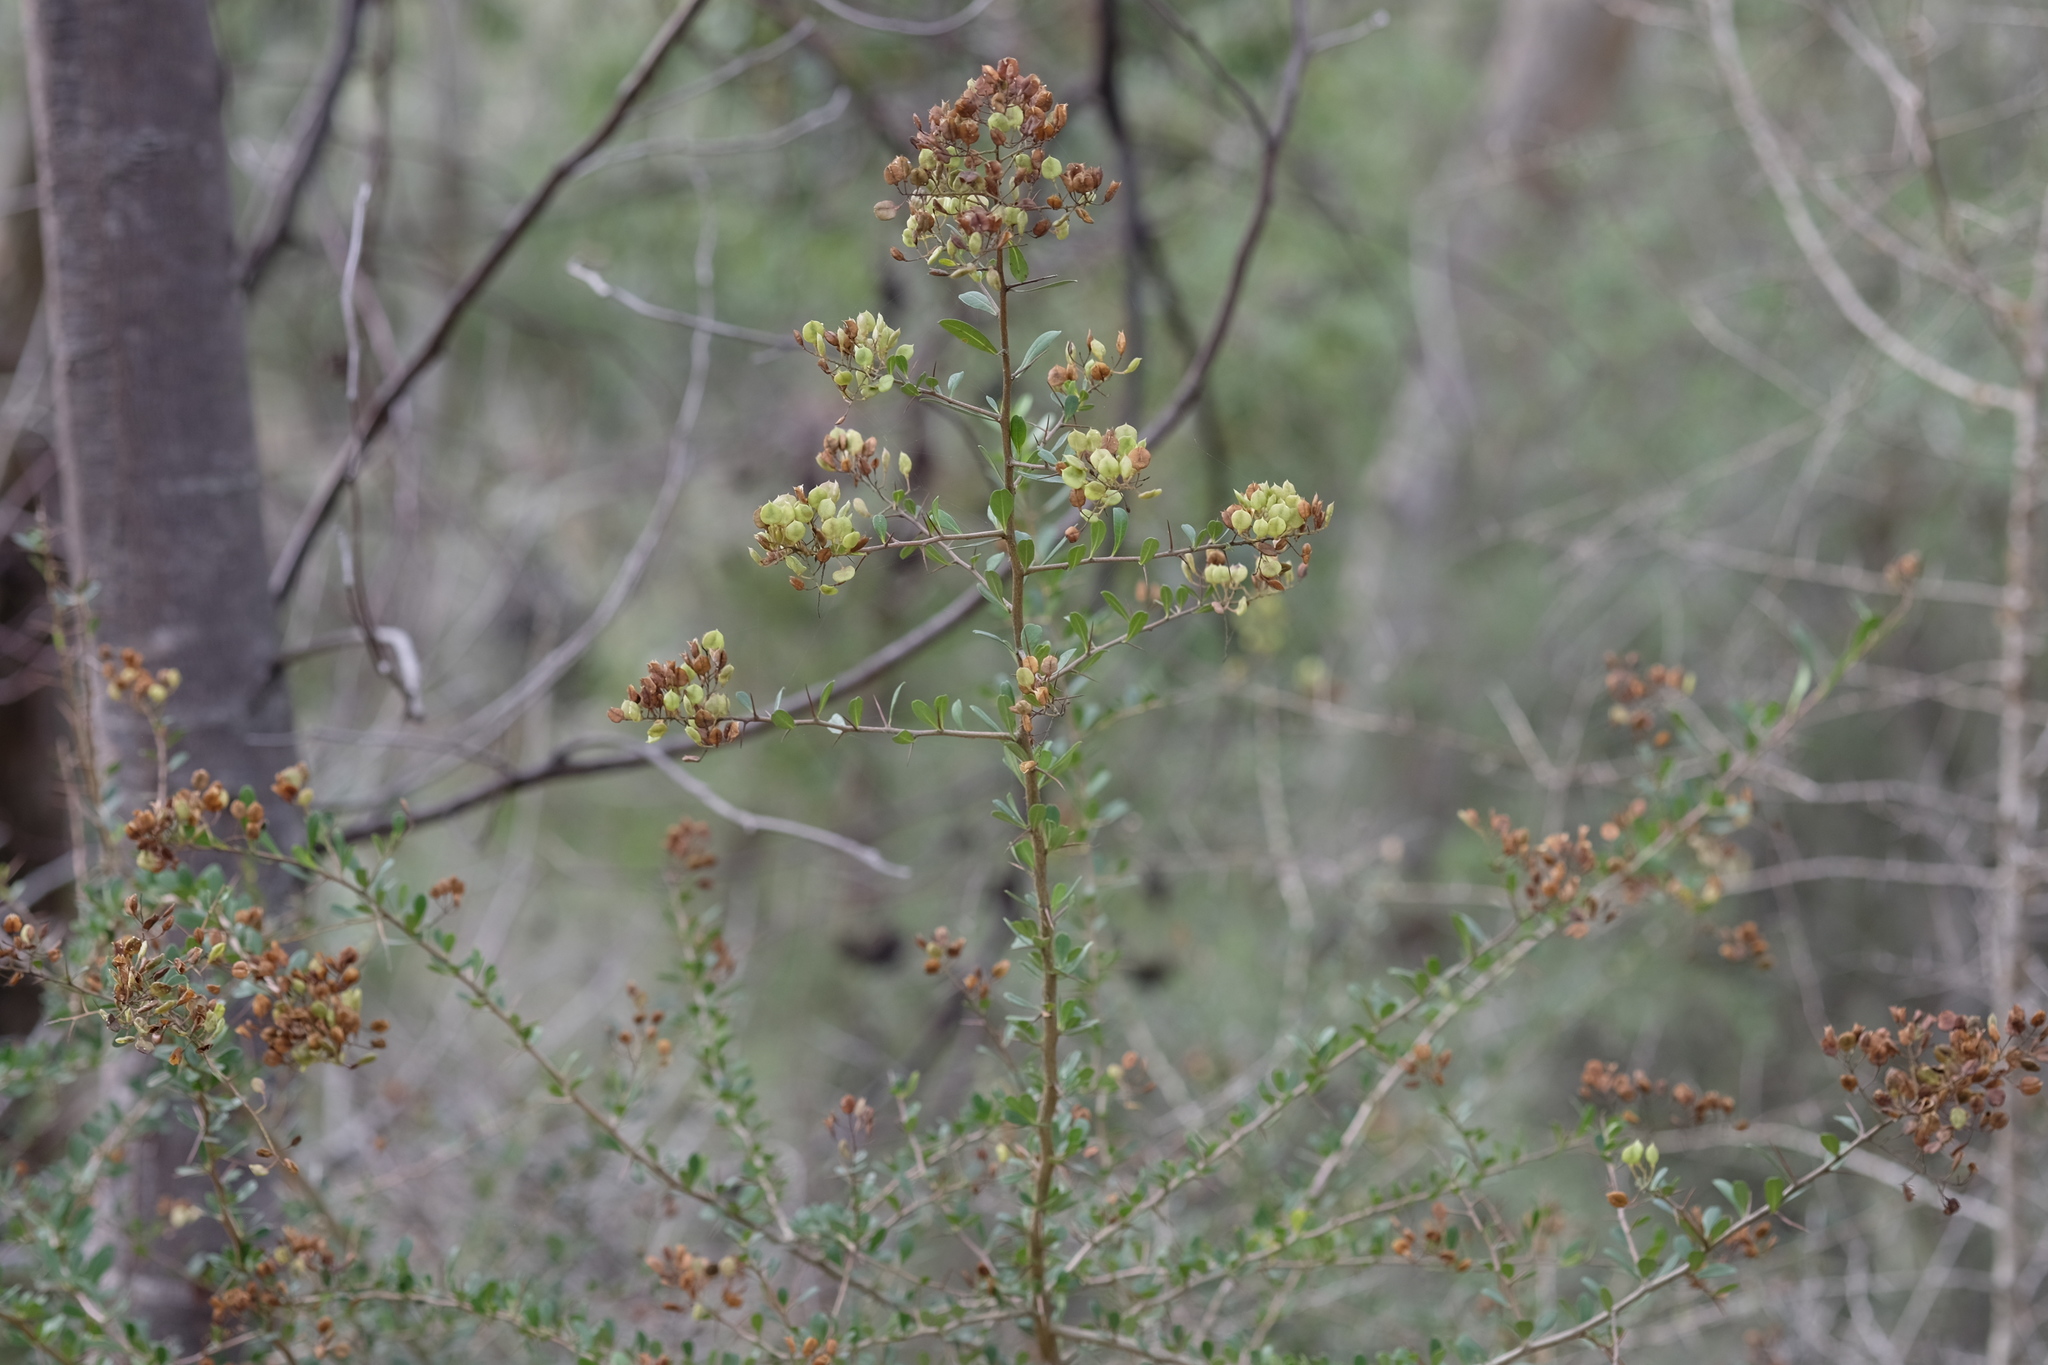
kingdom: Plantae
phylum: Tracheophyta
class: Magnoliopsida
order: Apiales
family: Pittosporaceae
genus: Bursaria
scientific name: Bursaria spinosa
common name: Australian blackthorn
